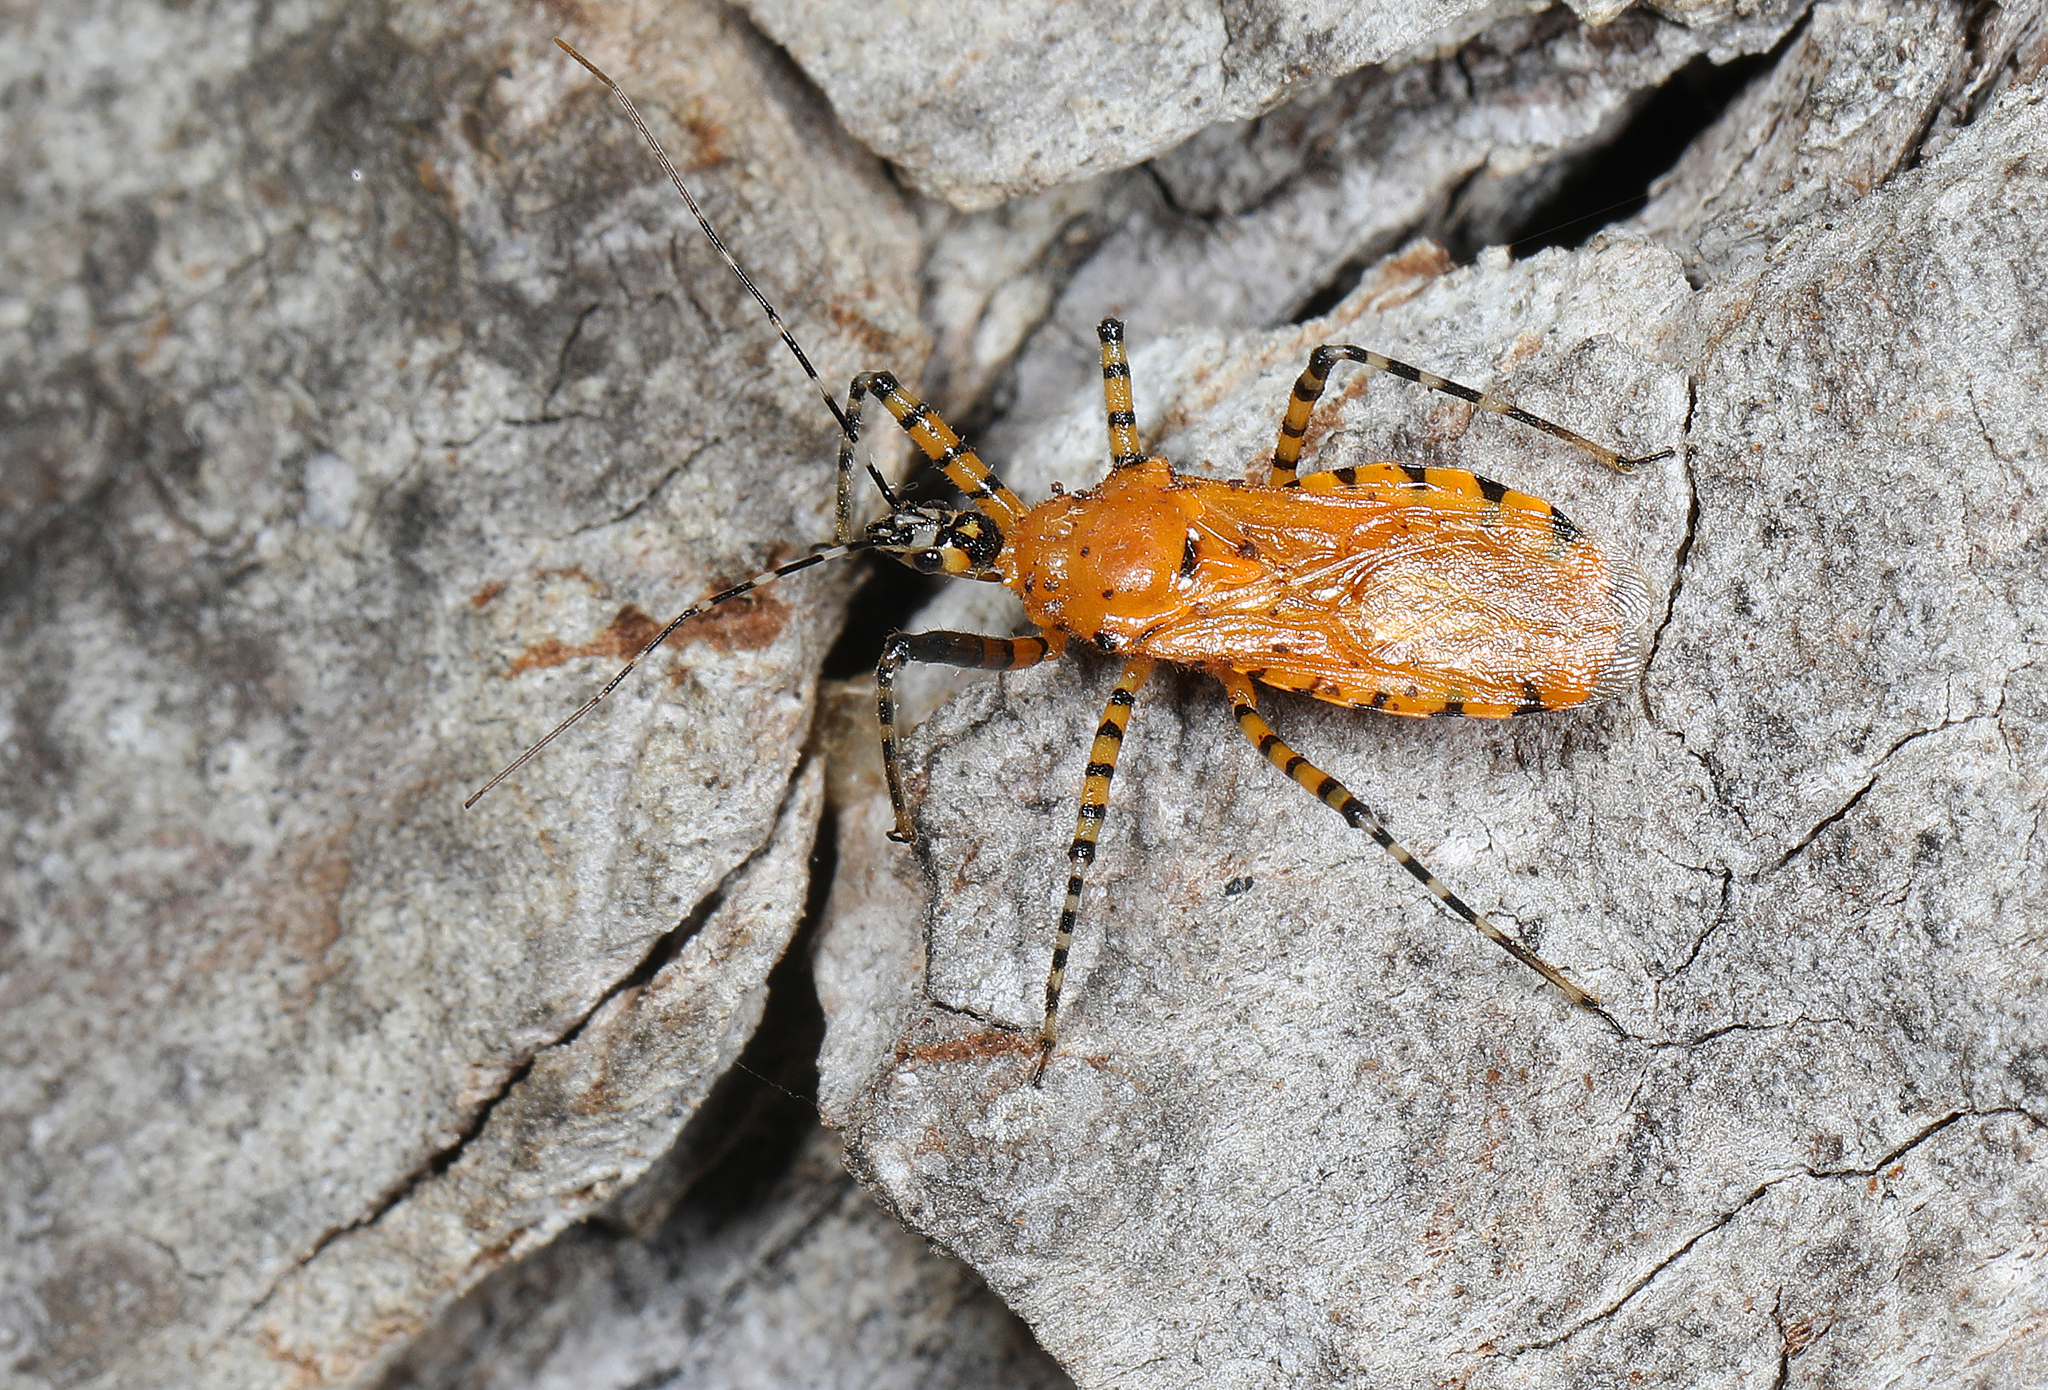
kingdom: Animalia
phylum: Arthropoda
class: Insecta
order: Hemiptera
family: Reduviidae
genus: Pselliopus
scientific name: Pselliopus barberi
